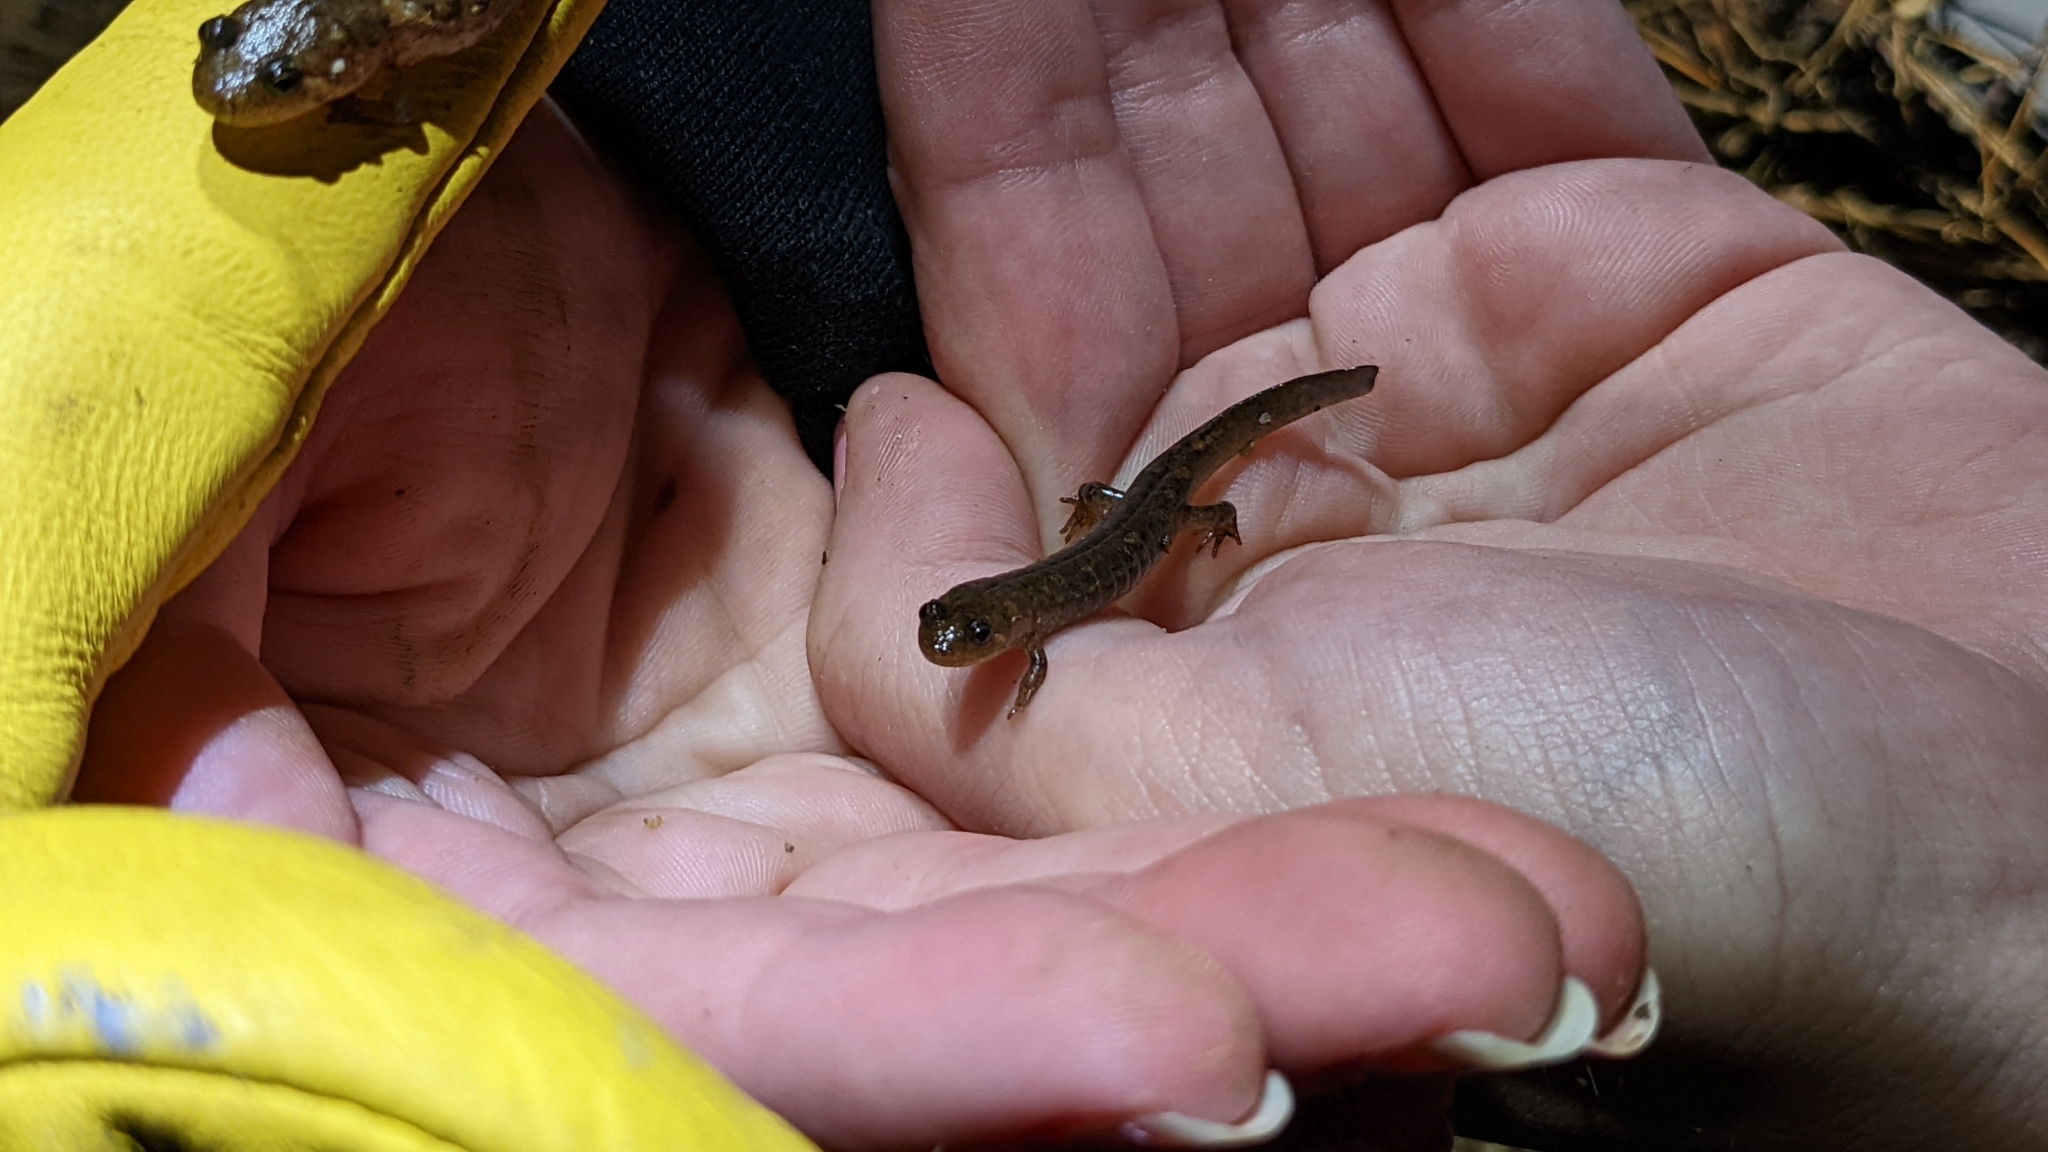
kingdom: Animalia
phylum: Chordata
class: Amphibia
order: Caudata
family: Plethodontidae
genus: Desmognathus
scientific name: Desmognathus brimleyorum
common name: Ouachita dusky salamander
